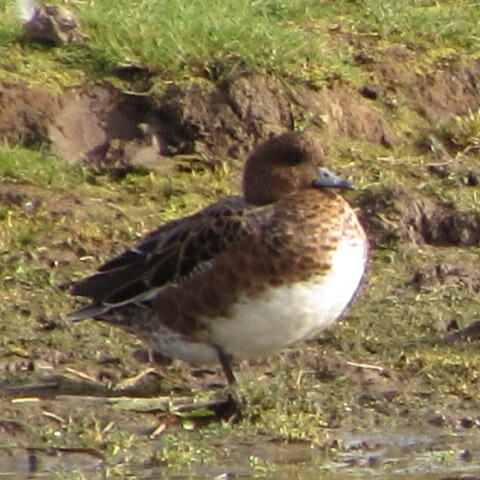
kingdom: Animalia
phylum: Chordata
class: Aves
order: Anseriformes
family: Anatidae
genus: Mareca
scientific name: Mareca penelope
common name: Eurasian wigeon
